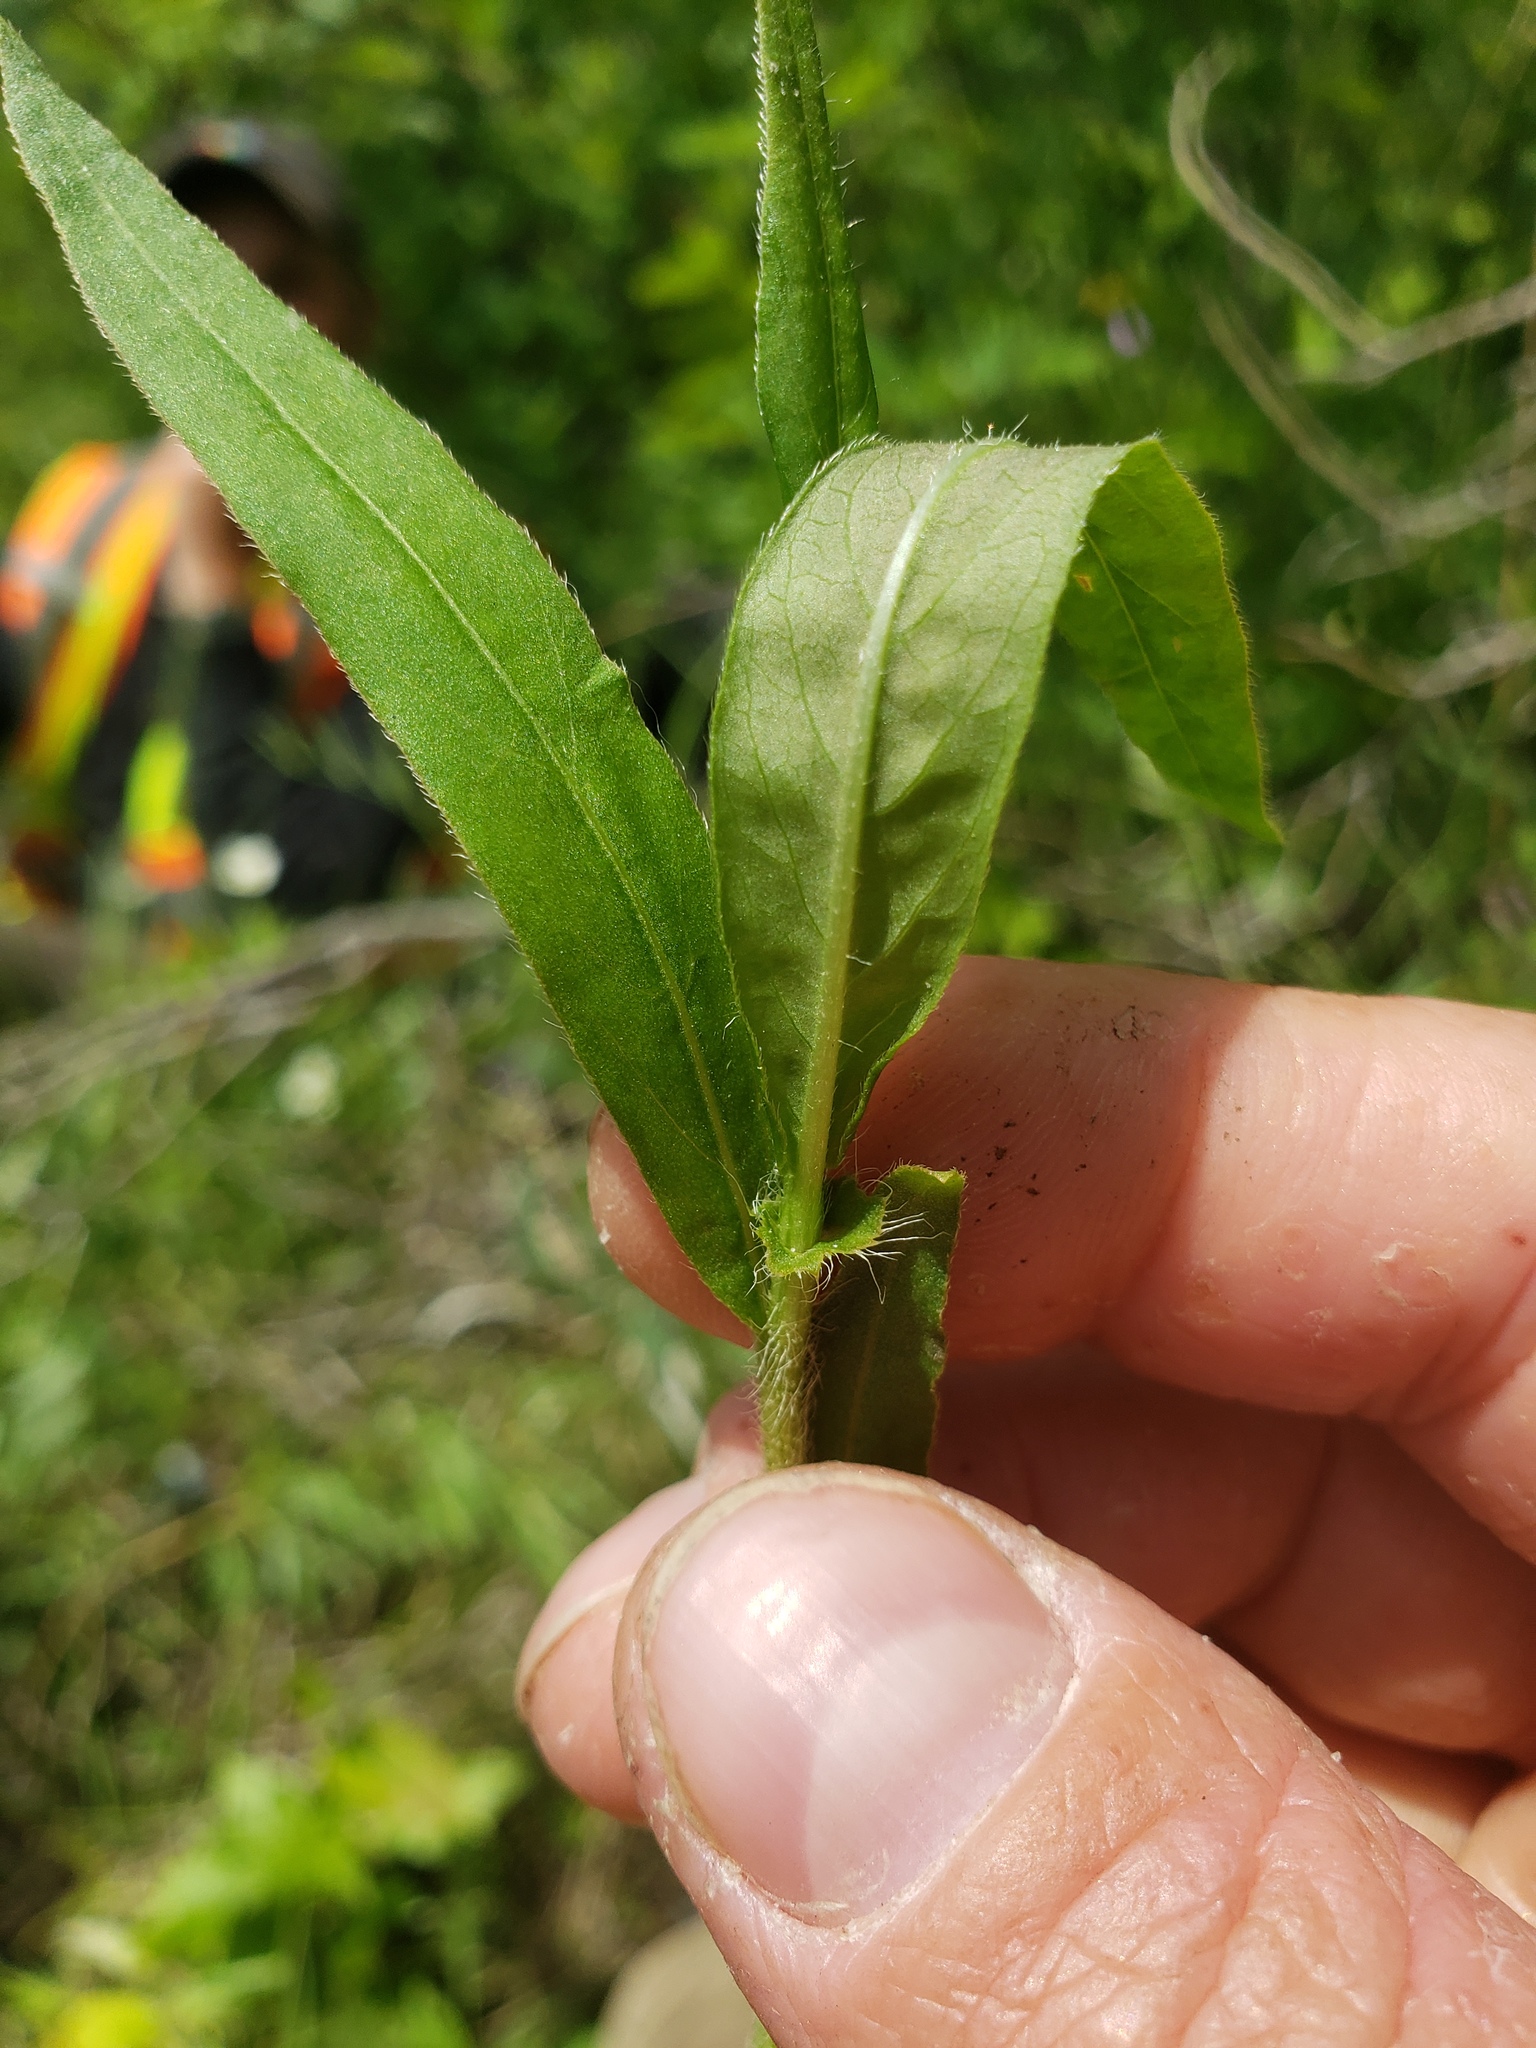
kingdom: Plantae
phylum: Tracheophyta
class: Magnoliopsida
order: Caryophyllales
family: Polygonaceae
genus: Persicaria
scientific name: Persicaria amphibia
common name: Amphibious bistort
